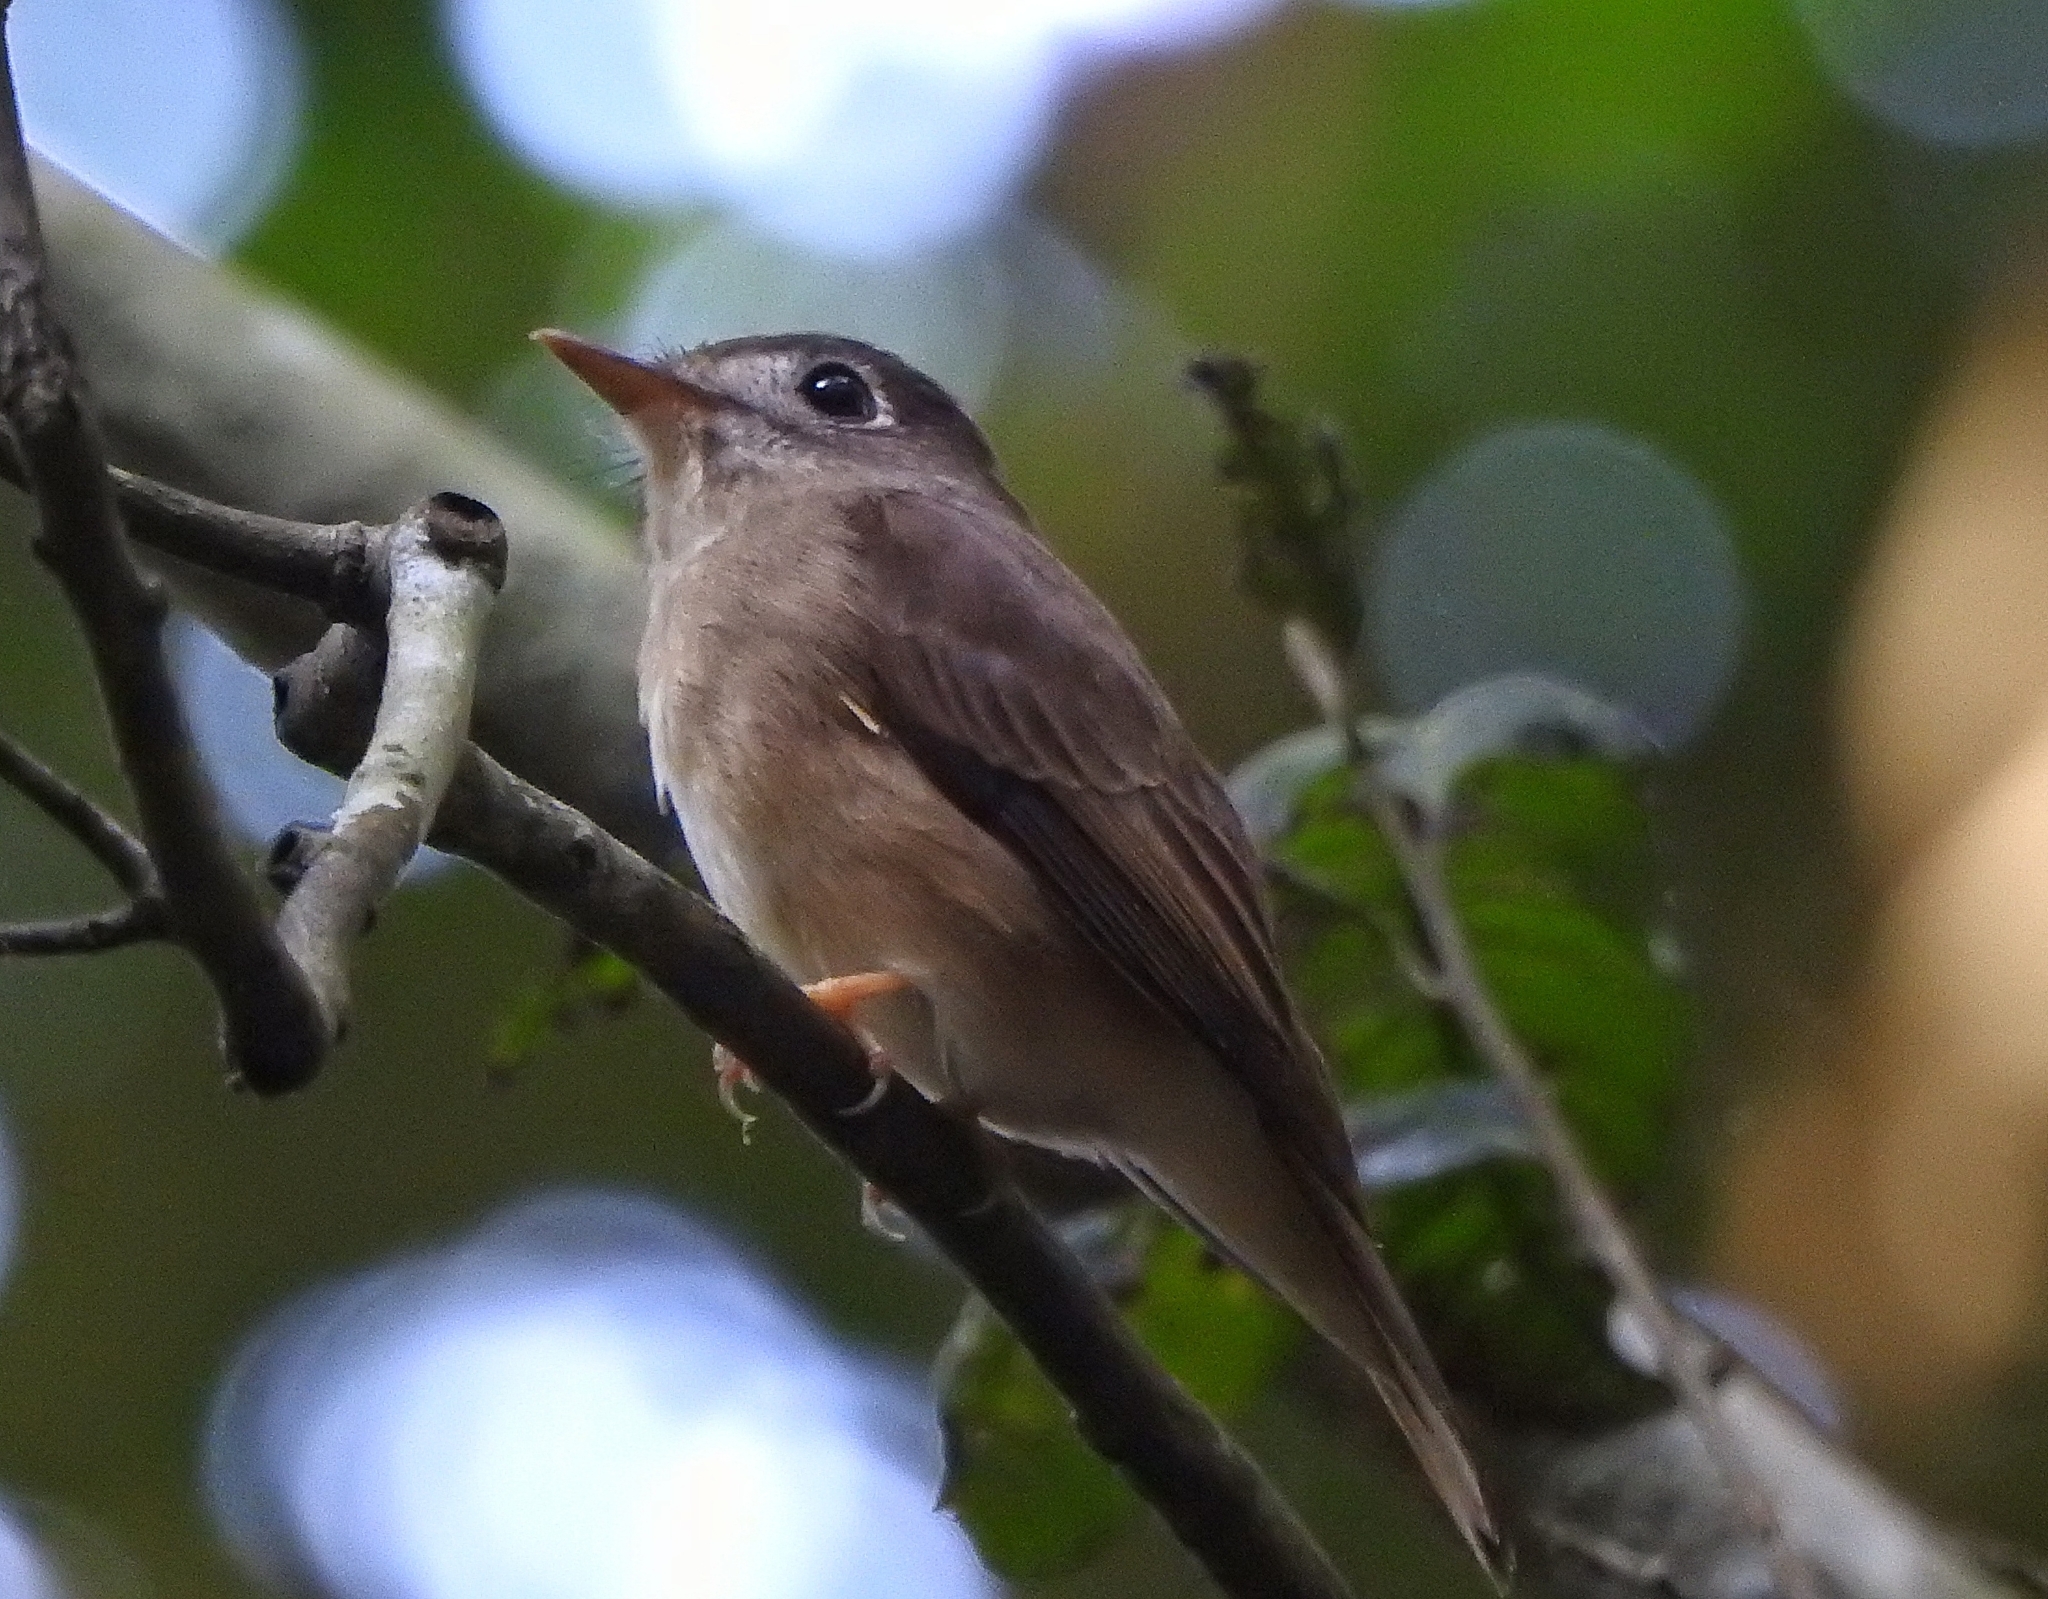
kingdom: Animalia
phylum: Chordata
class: Aves
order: Passeriformes
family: Muscicapidae
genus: Muscicapa
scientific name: Muscicapa muttui
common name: Brown-breasted flycatcher
